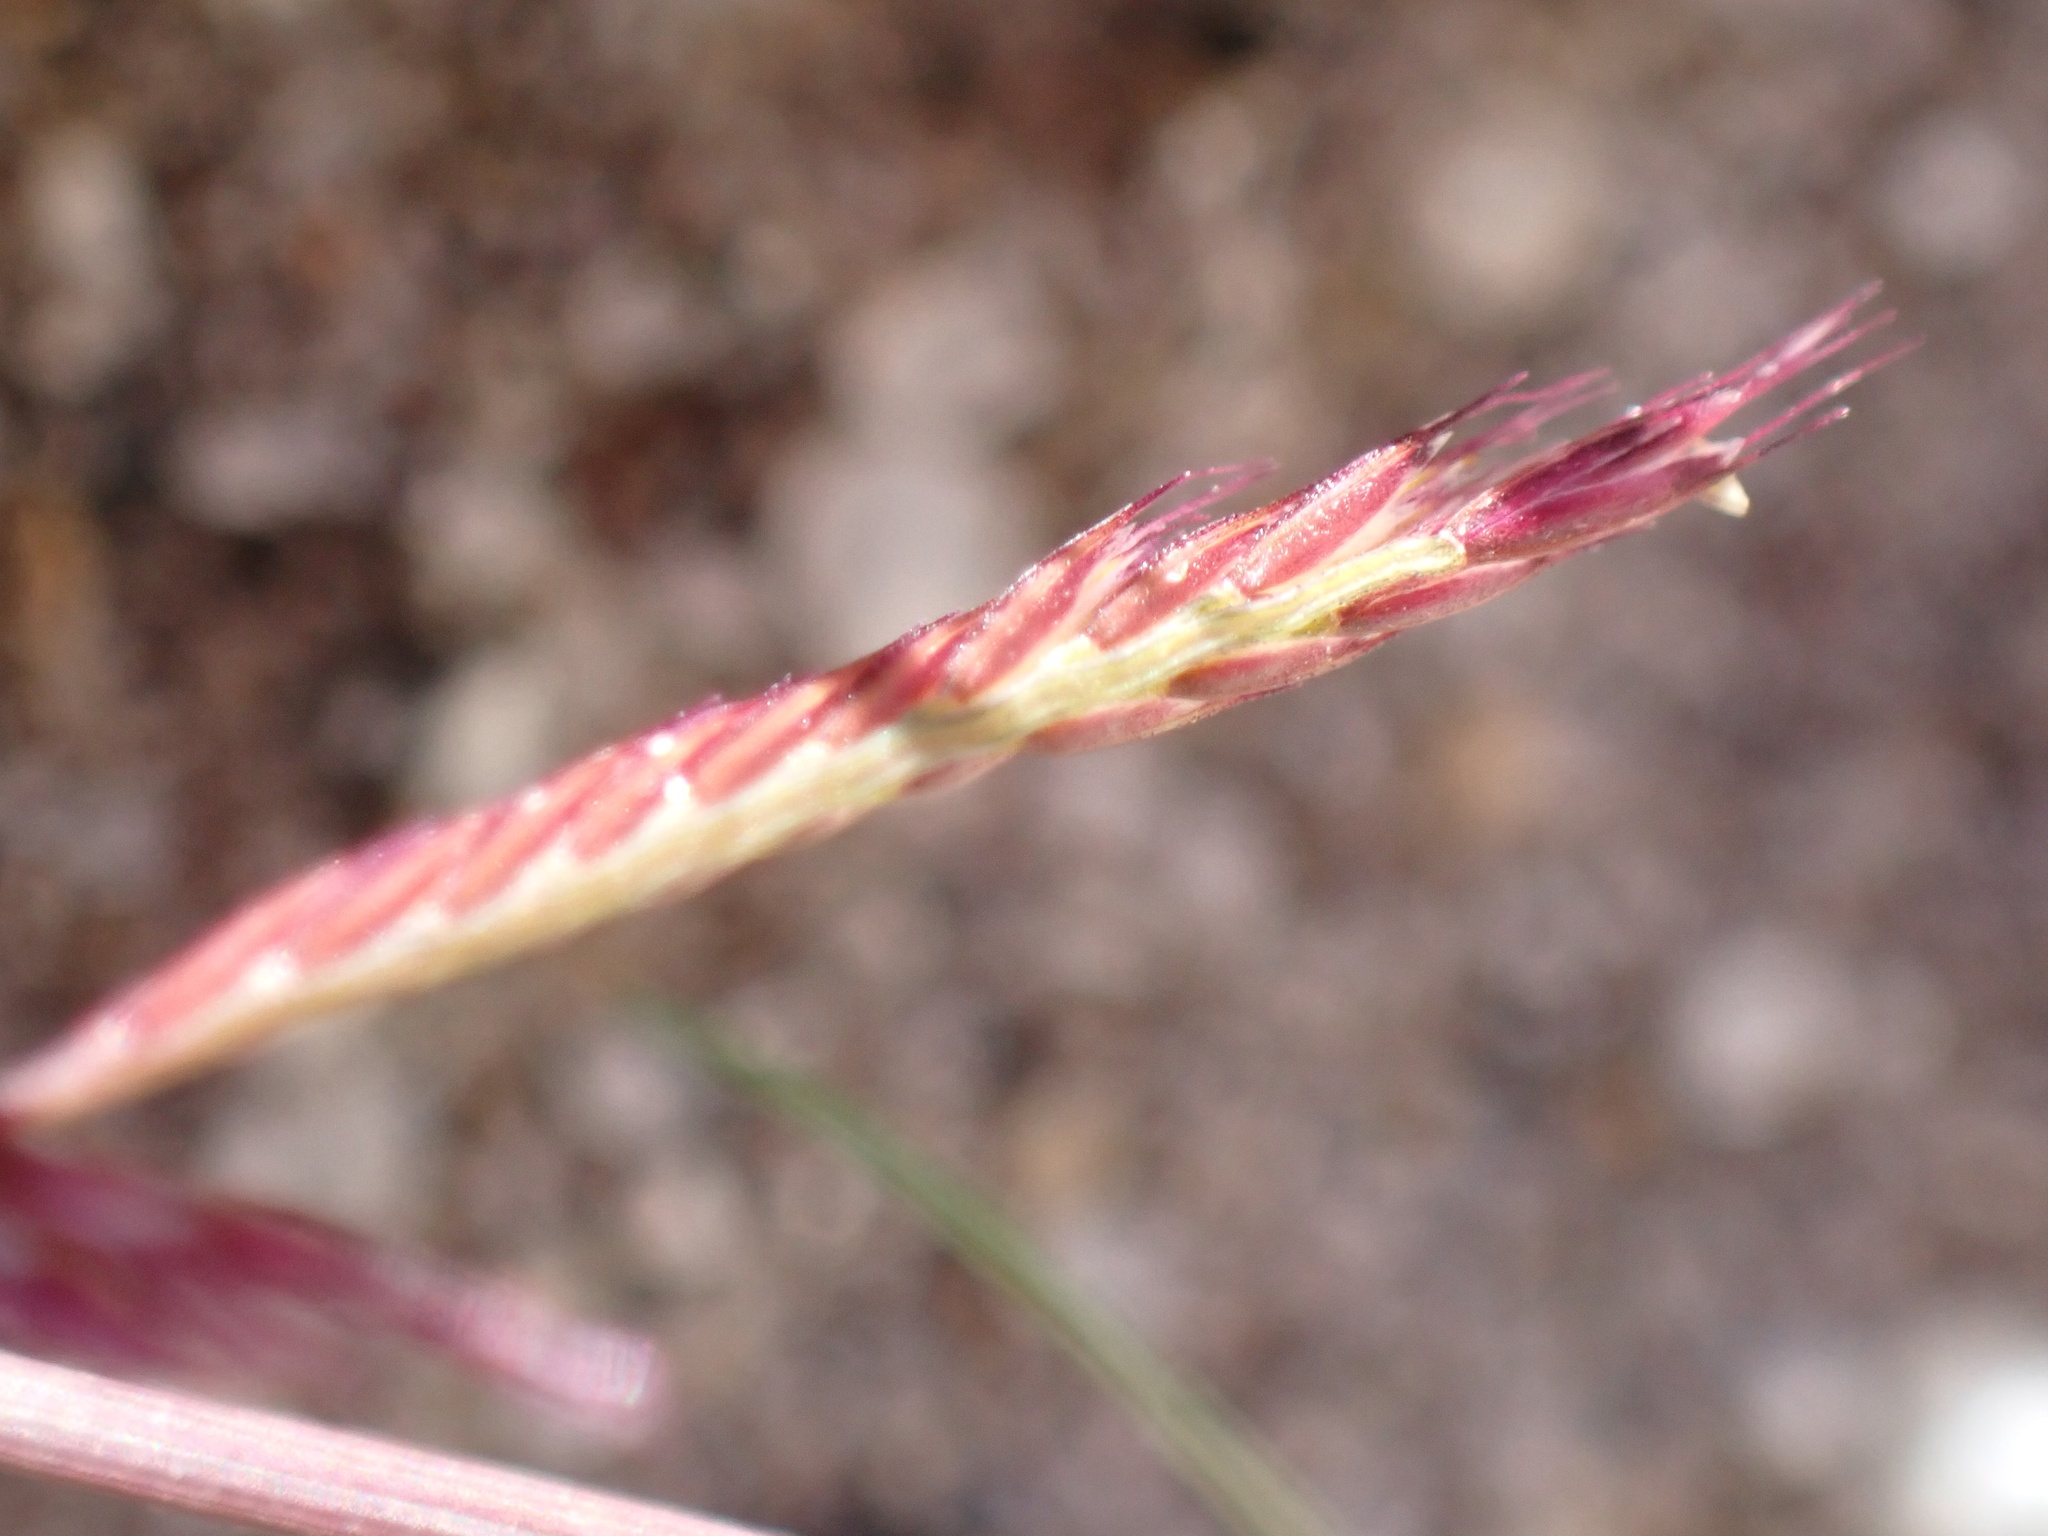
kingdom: Plantae
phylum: Tracheophyta
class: Liliopsida
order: Poales
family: Poaceae
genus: Bouteloua
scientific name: Bouteloua barbata
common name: Six-weeks grama
